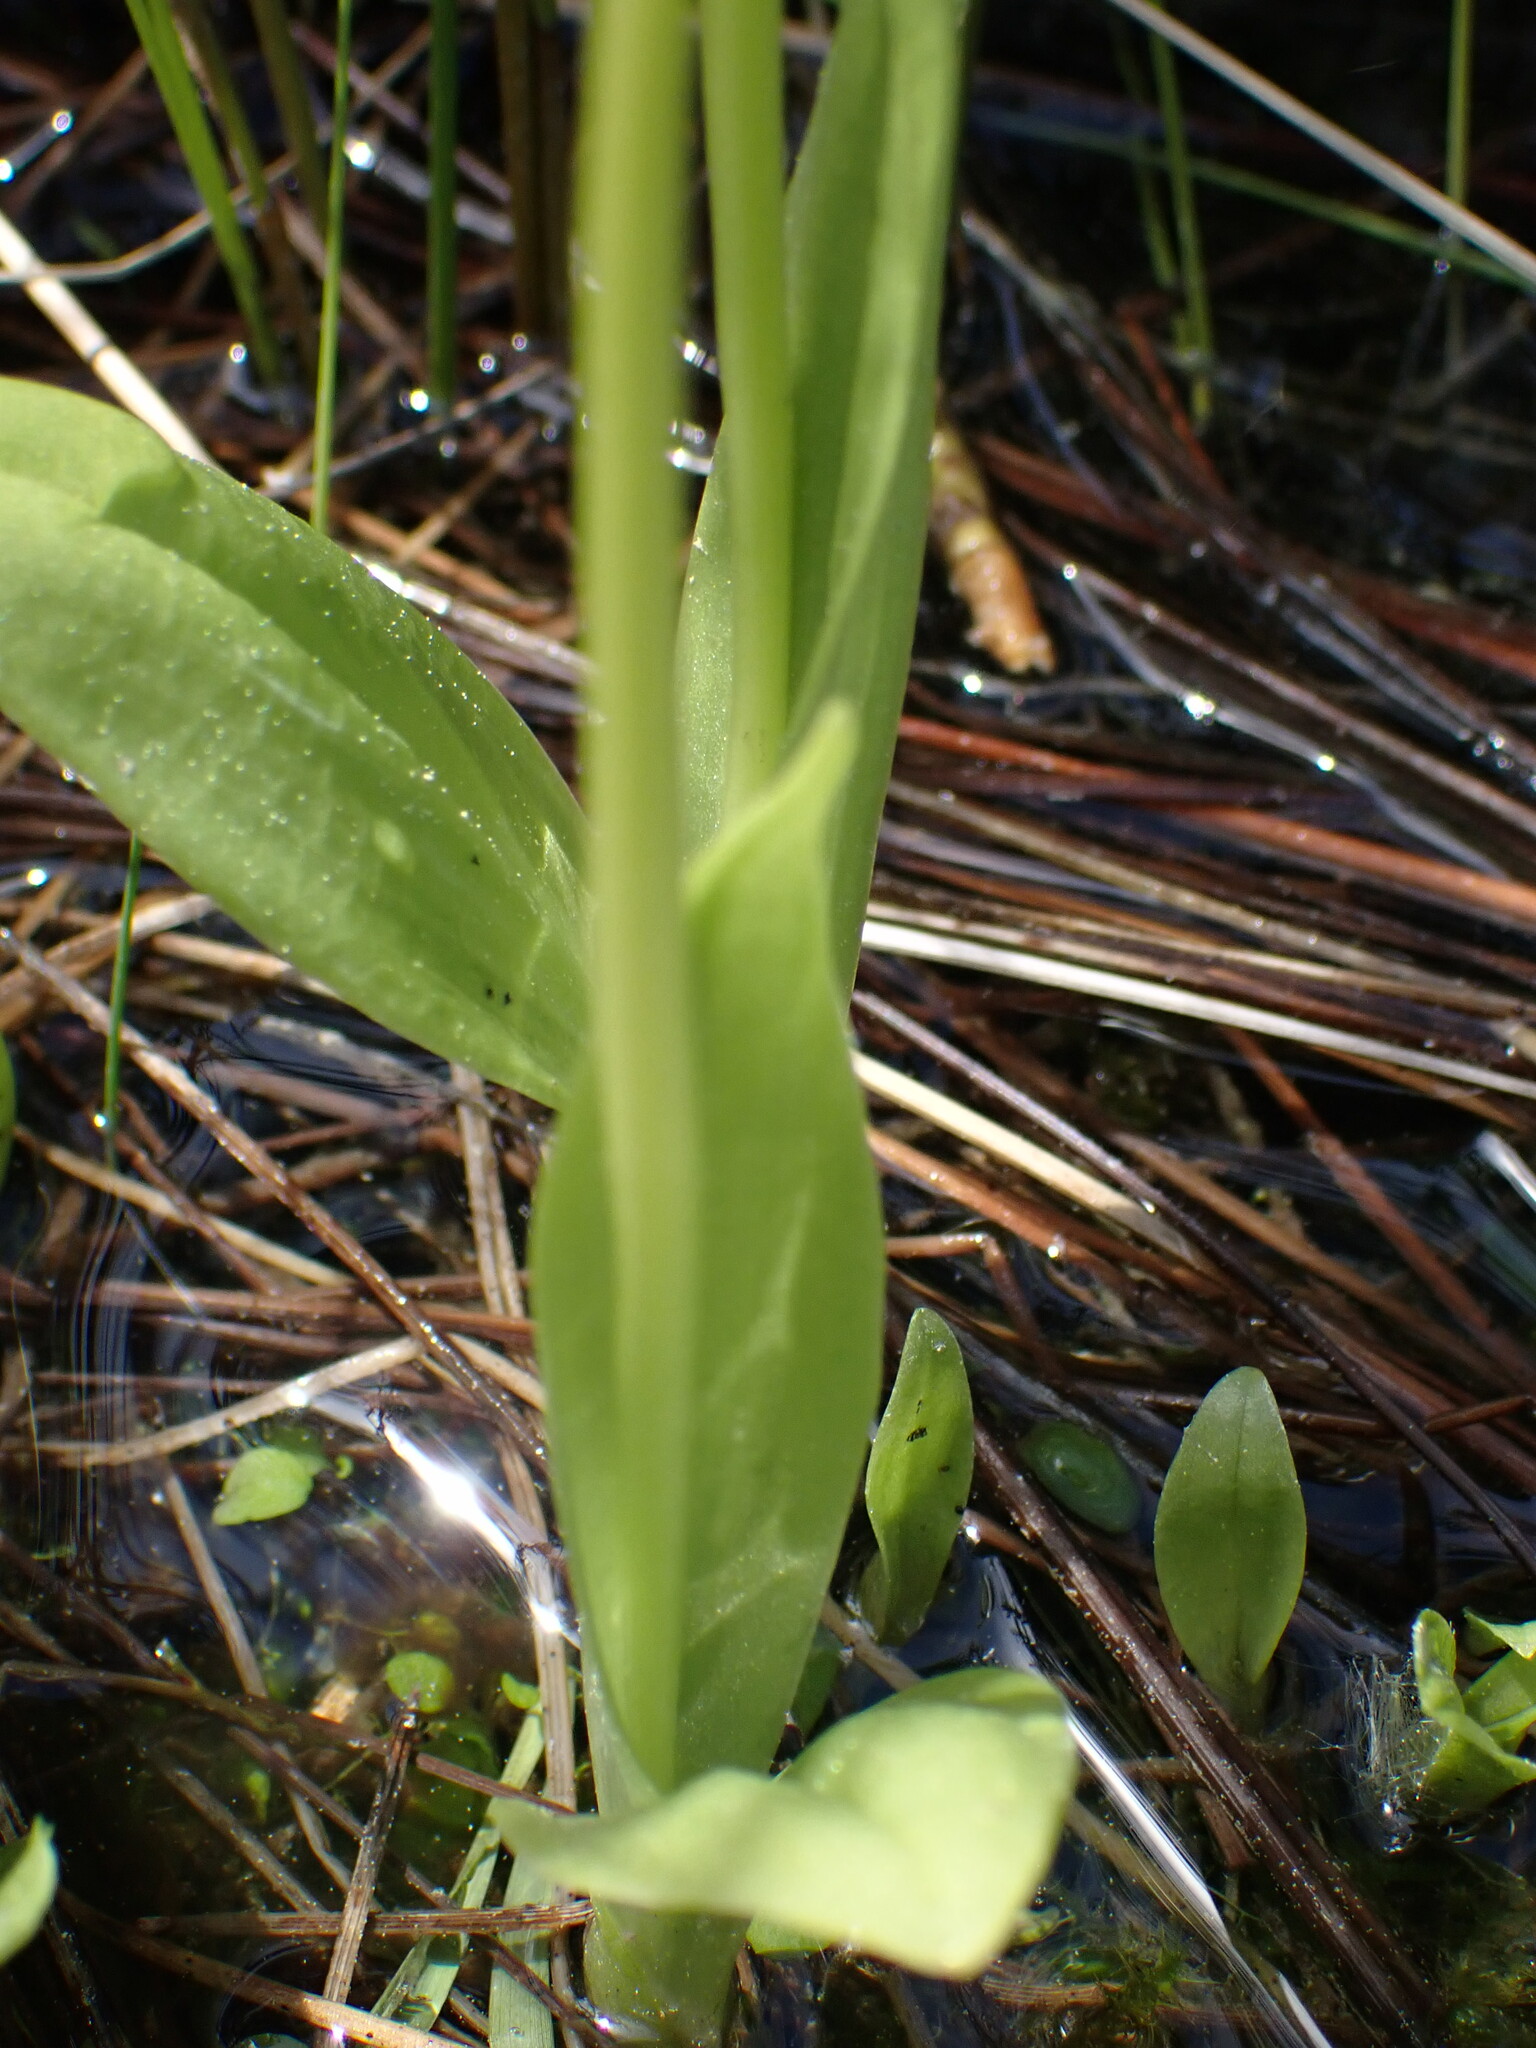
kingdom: Animalia
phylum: Arthropoda
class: Insecta
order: Coleoptera
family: Curculionidae
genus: Liparis
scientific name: Liparis loeselii
